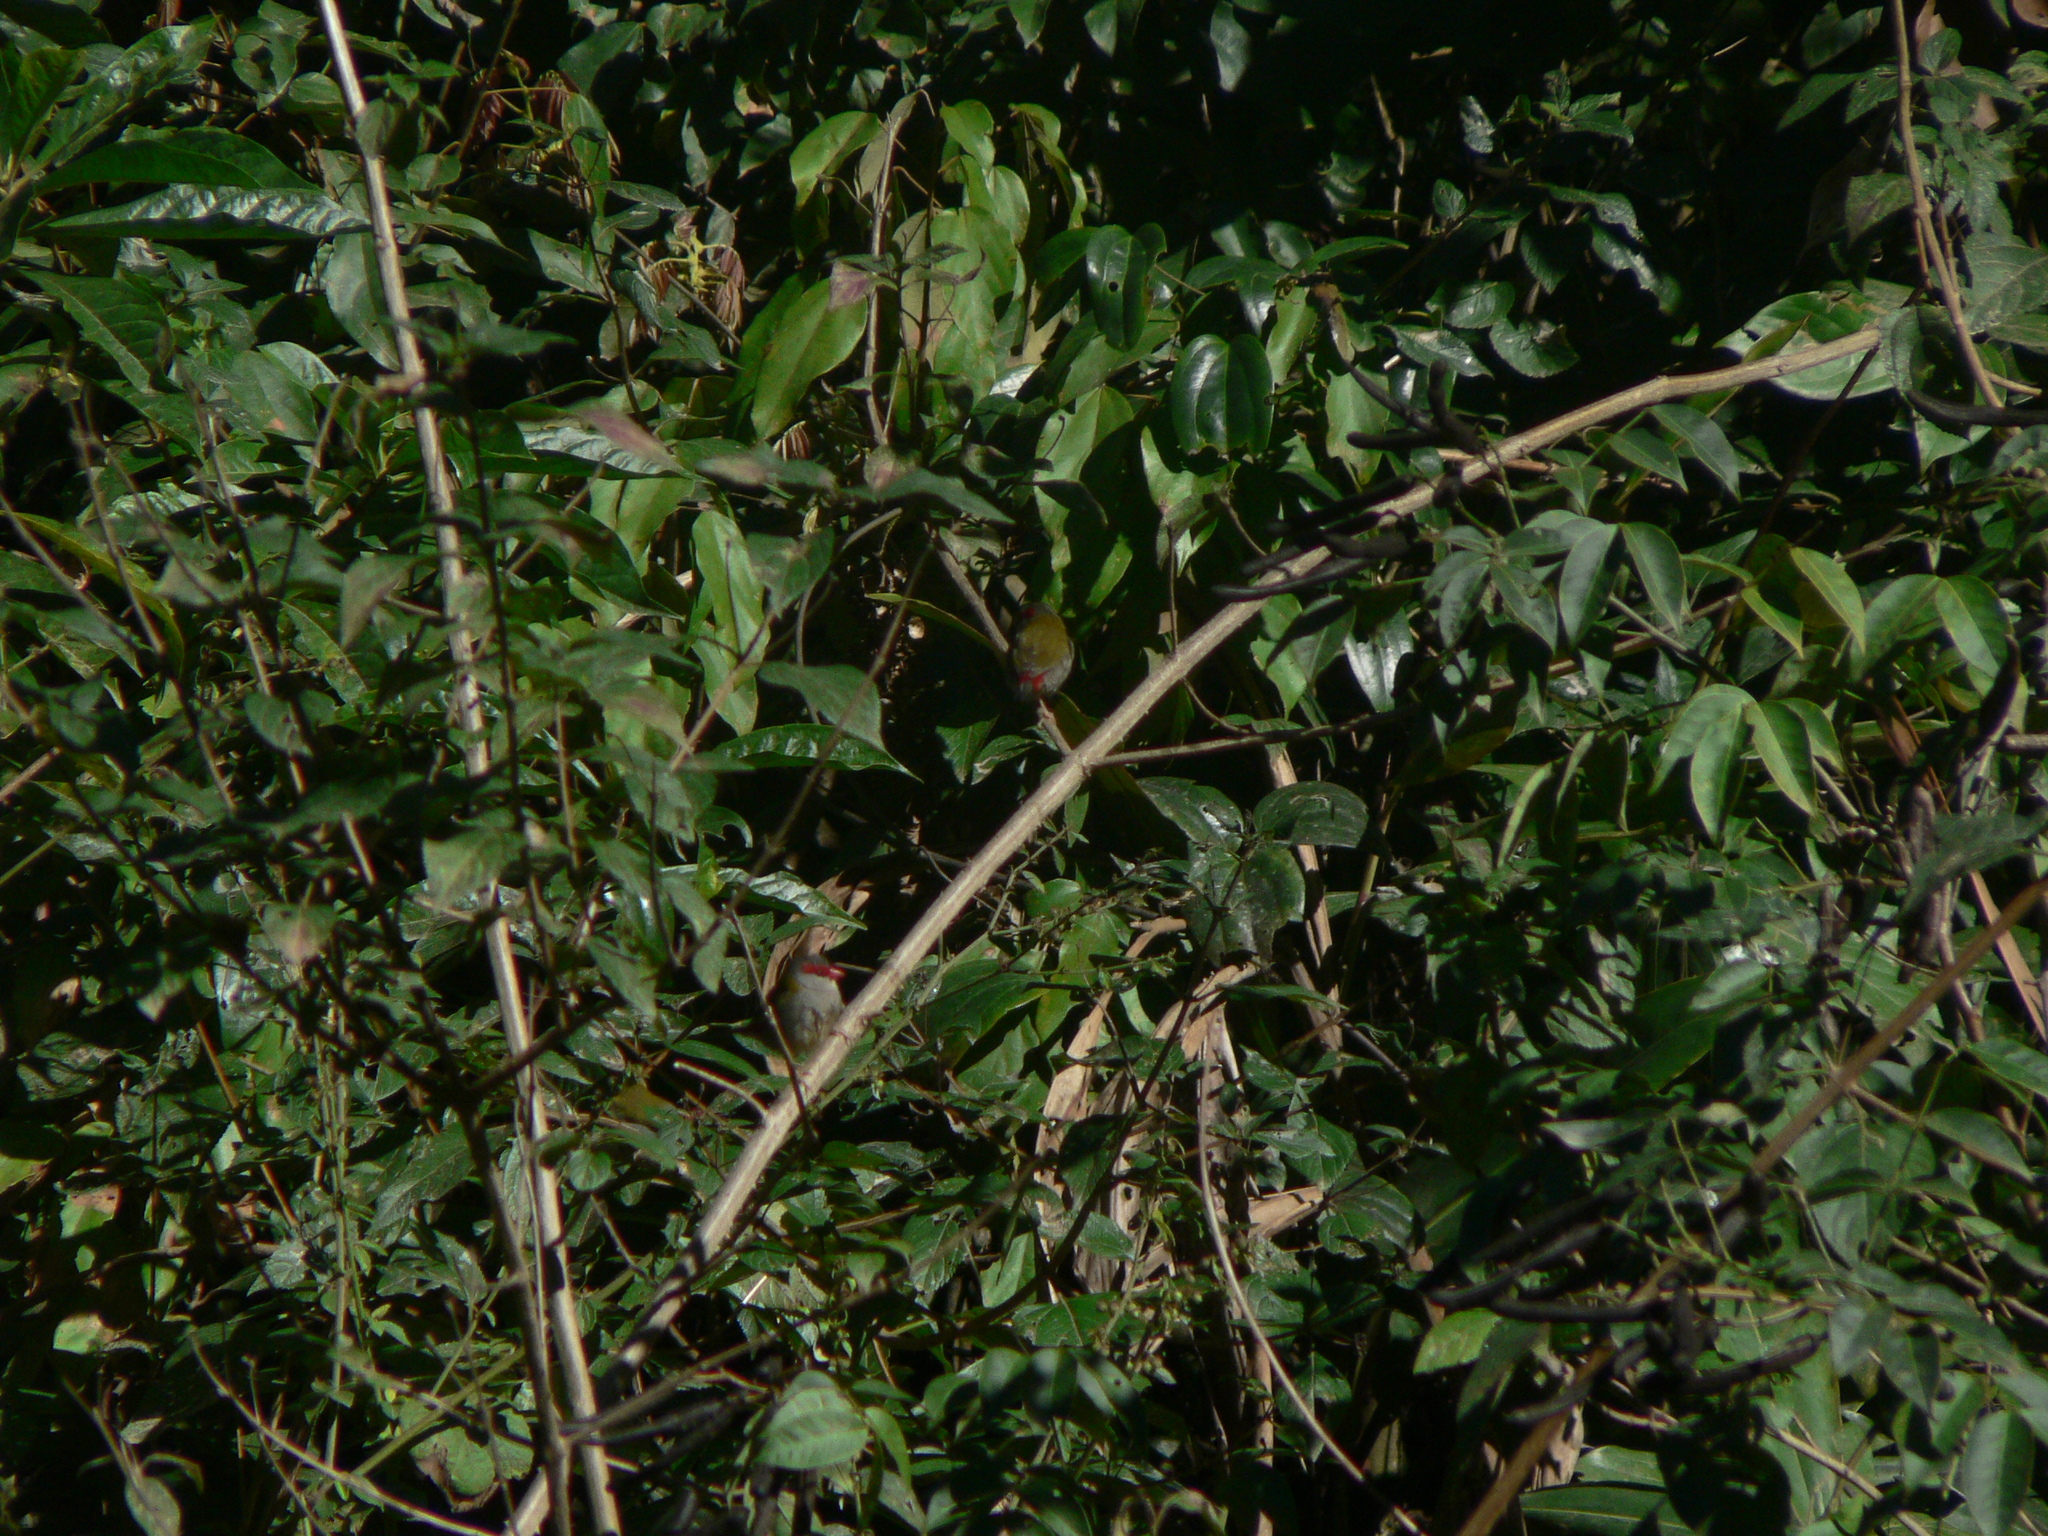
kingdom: Animalia
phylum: Chordata
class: Aves
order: Passeriformes
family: Estrildidae
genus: Neochmia
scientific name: Neochmia temporalis
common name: Red-browed finch
